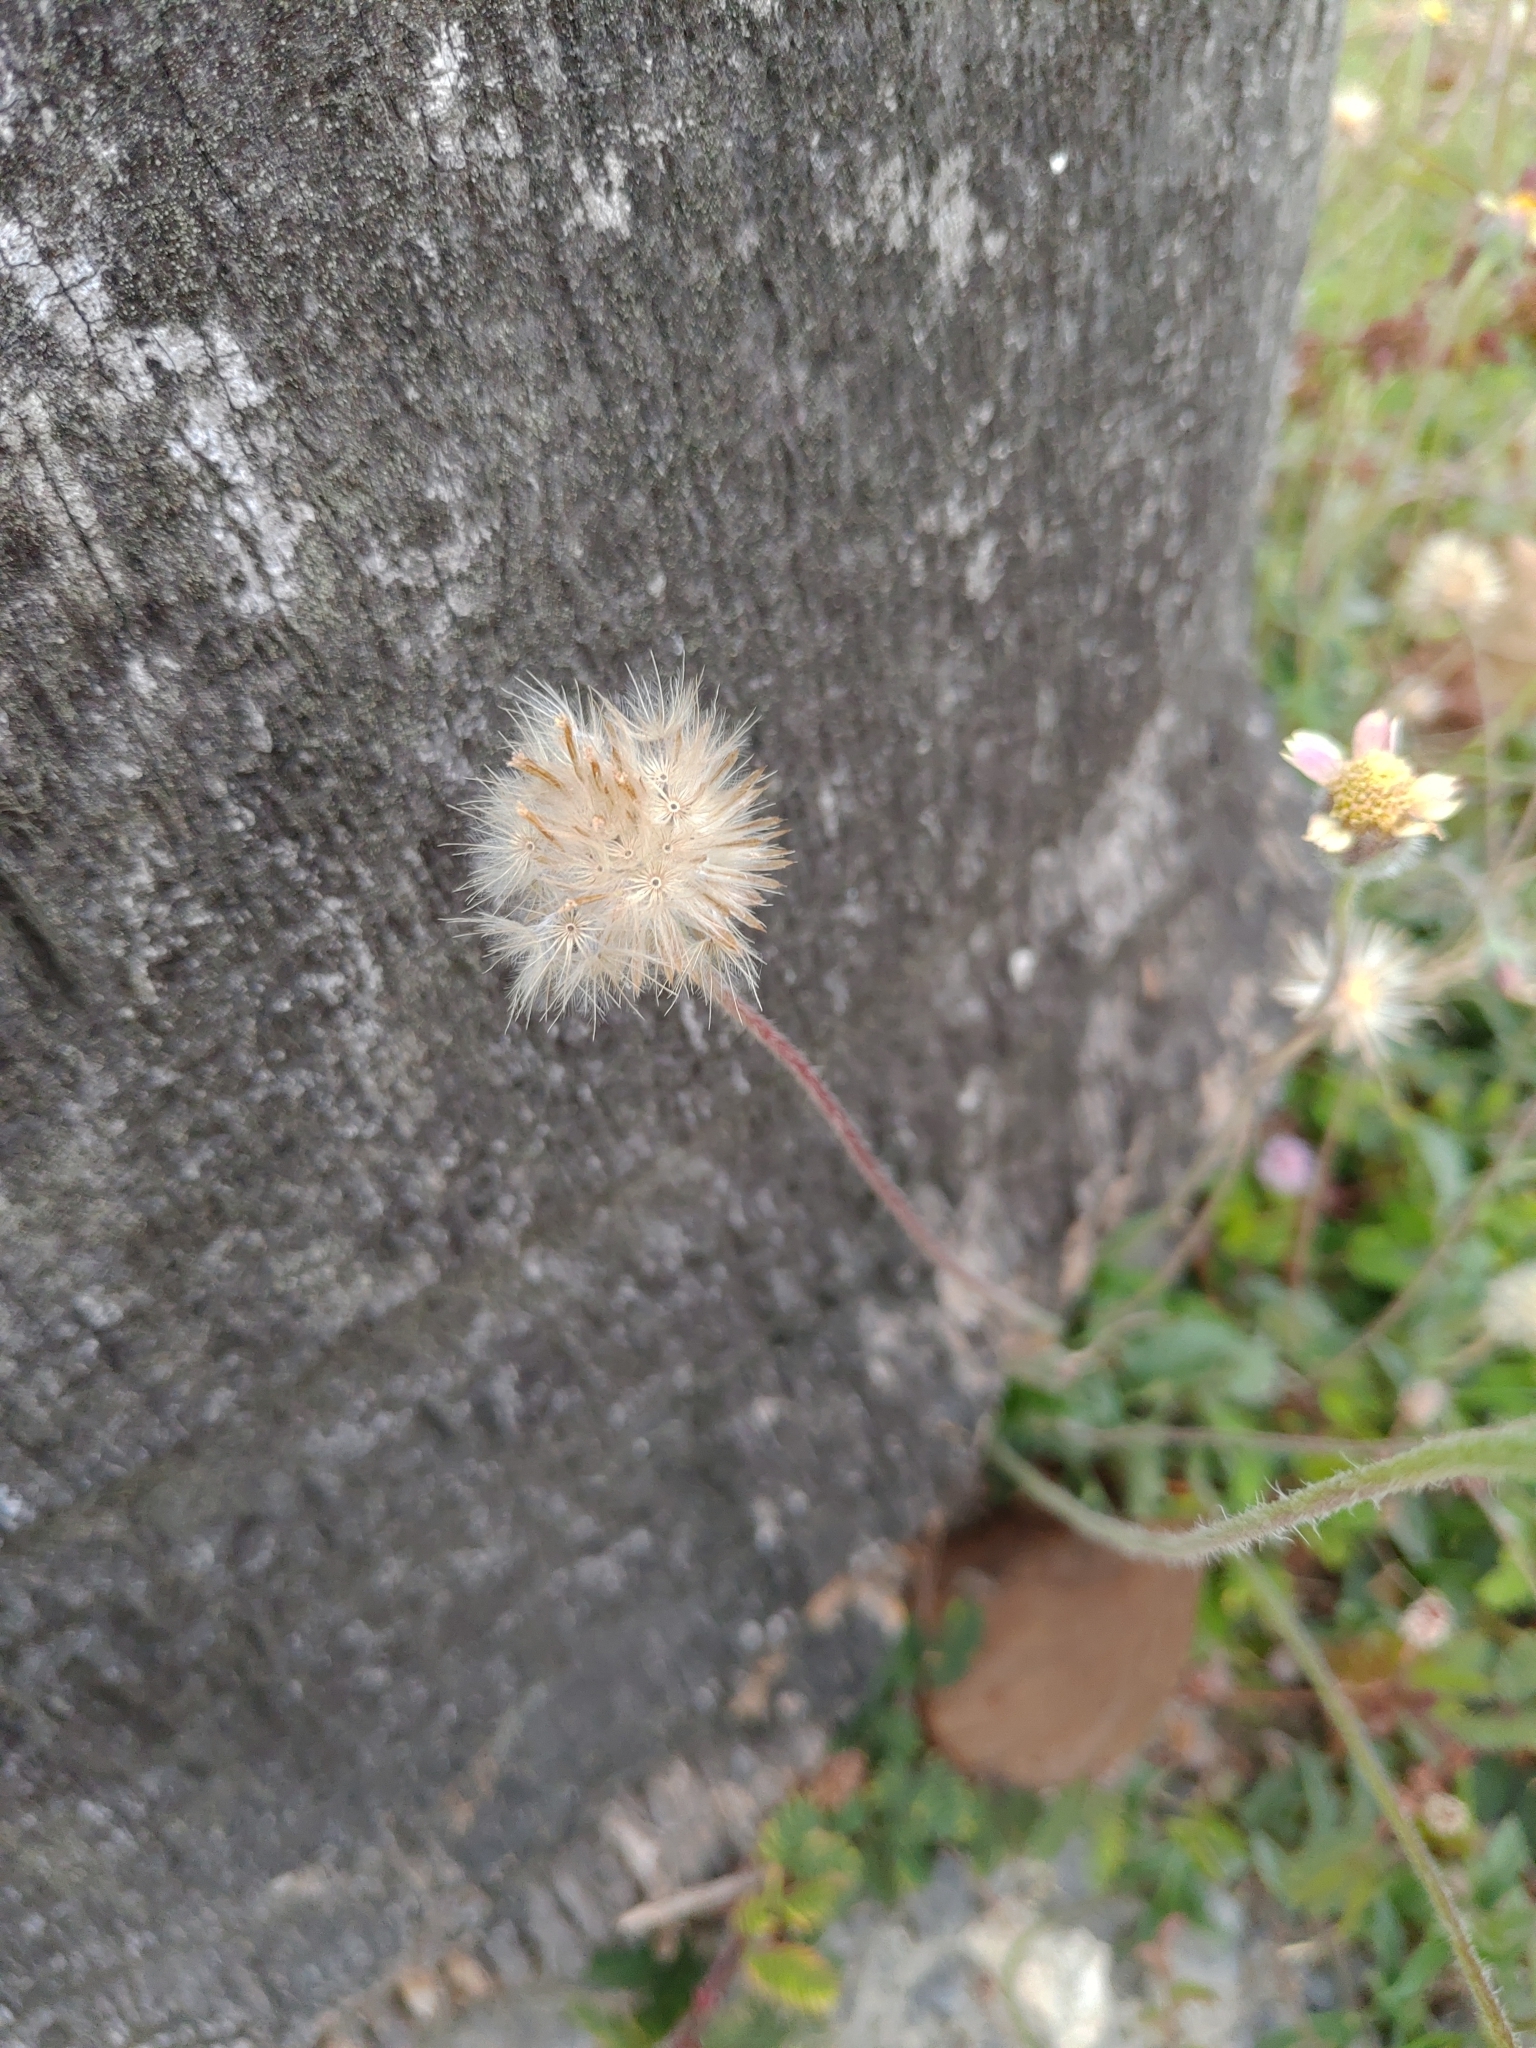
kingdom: Plantae
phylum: Tracheophyta
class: Magnoliopsida
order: Asterales
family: Asteraceae
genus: Tridax
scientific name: Tridax procumbens
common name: Coatbuttons
